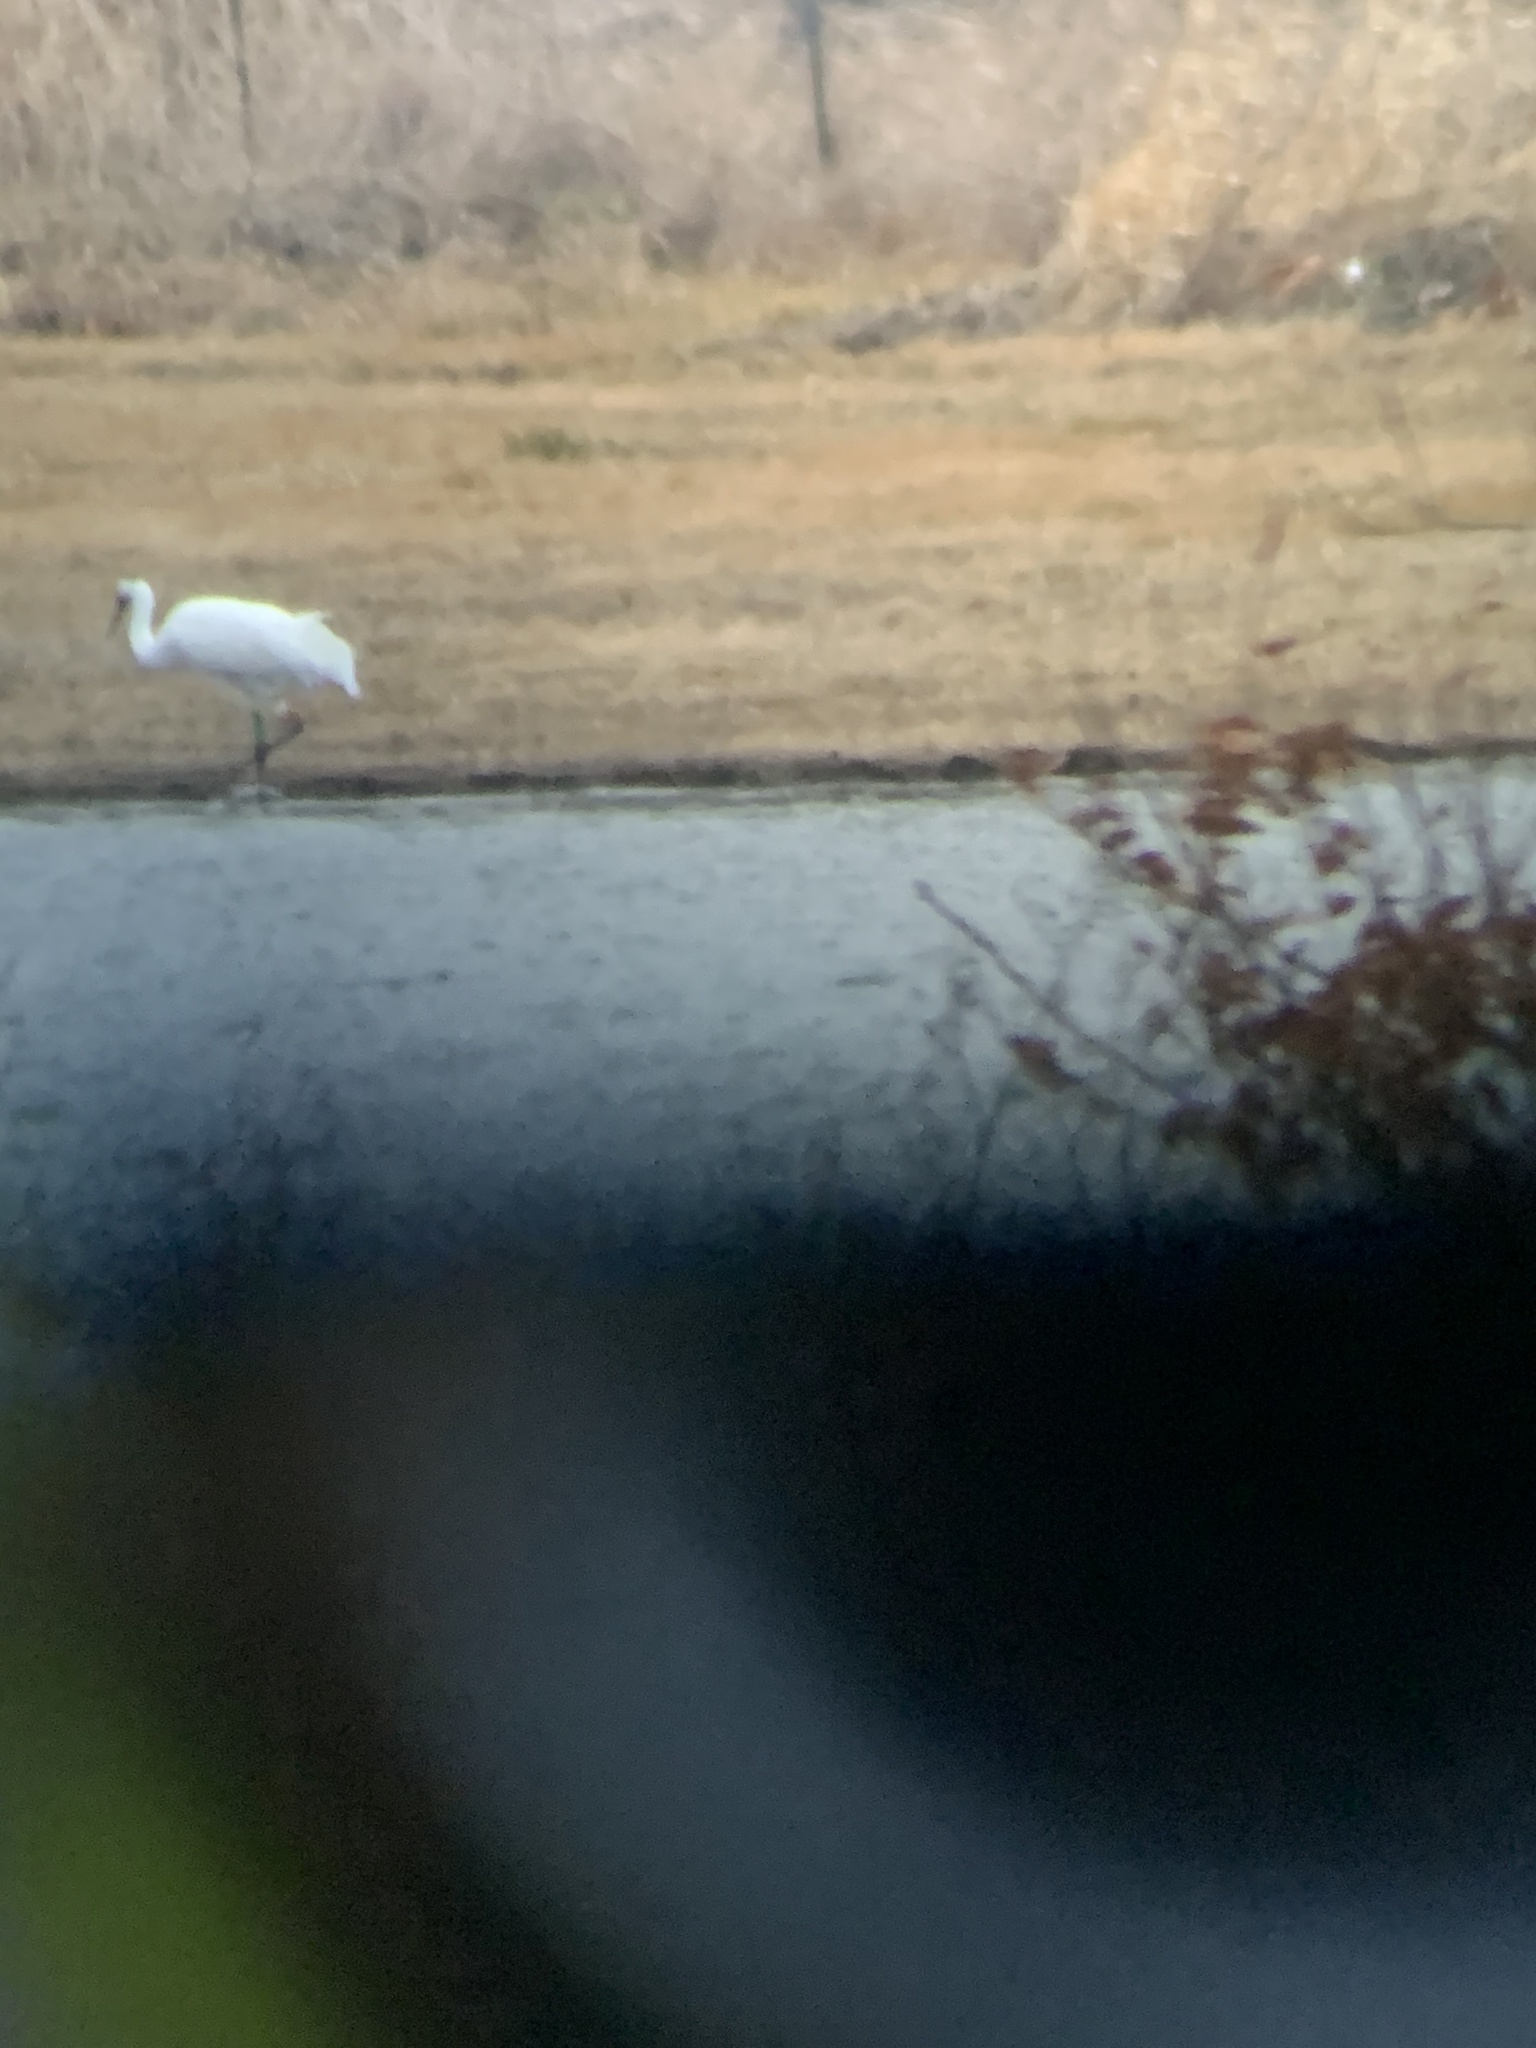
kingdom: Animalia
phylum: Chordata
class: Aves
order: Gruiformes
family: Gruidae
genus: Grus
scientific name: Grus americana
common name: Whooping crane
